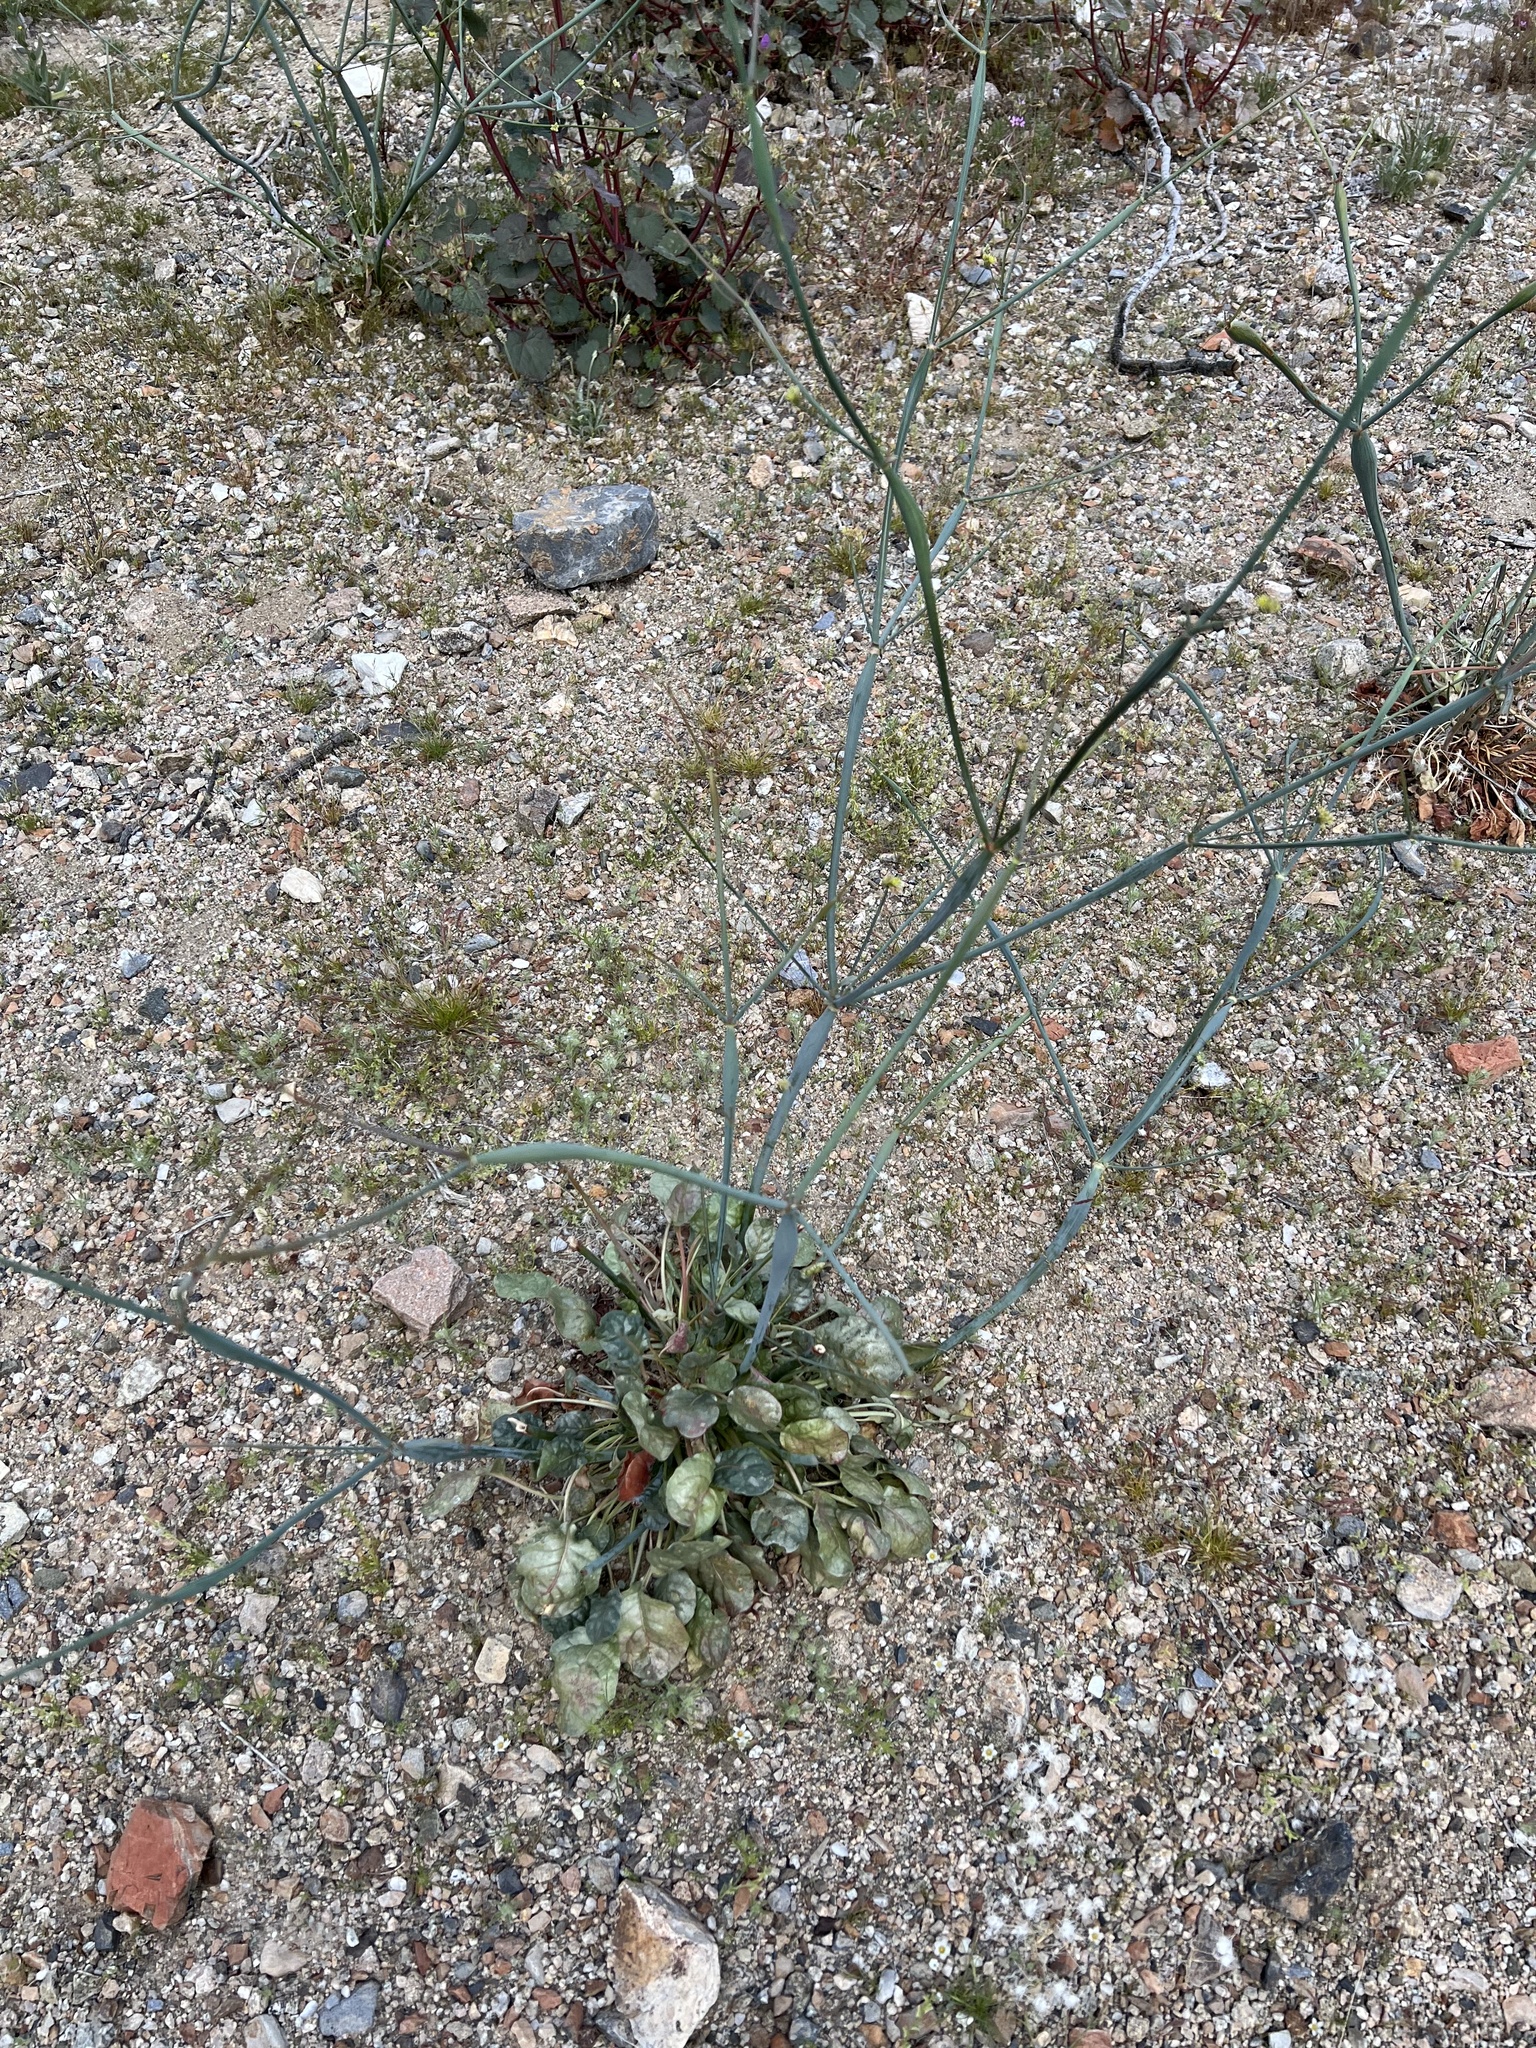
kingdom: Plantae
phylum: Tracheophyta
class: Magnoliopsida
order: Caryophyllales
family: Polygonaceae
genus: Eriogonum
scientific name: Eriogonum inflatum
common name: Desert trumpet
